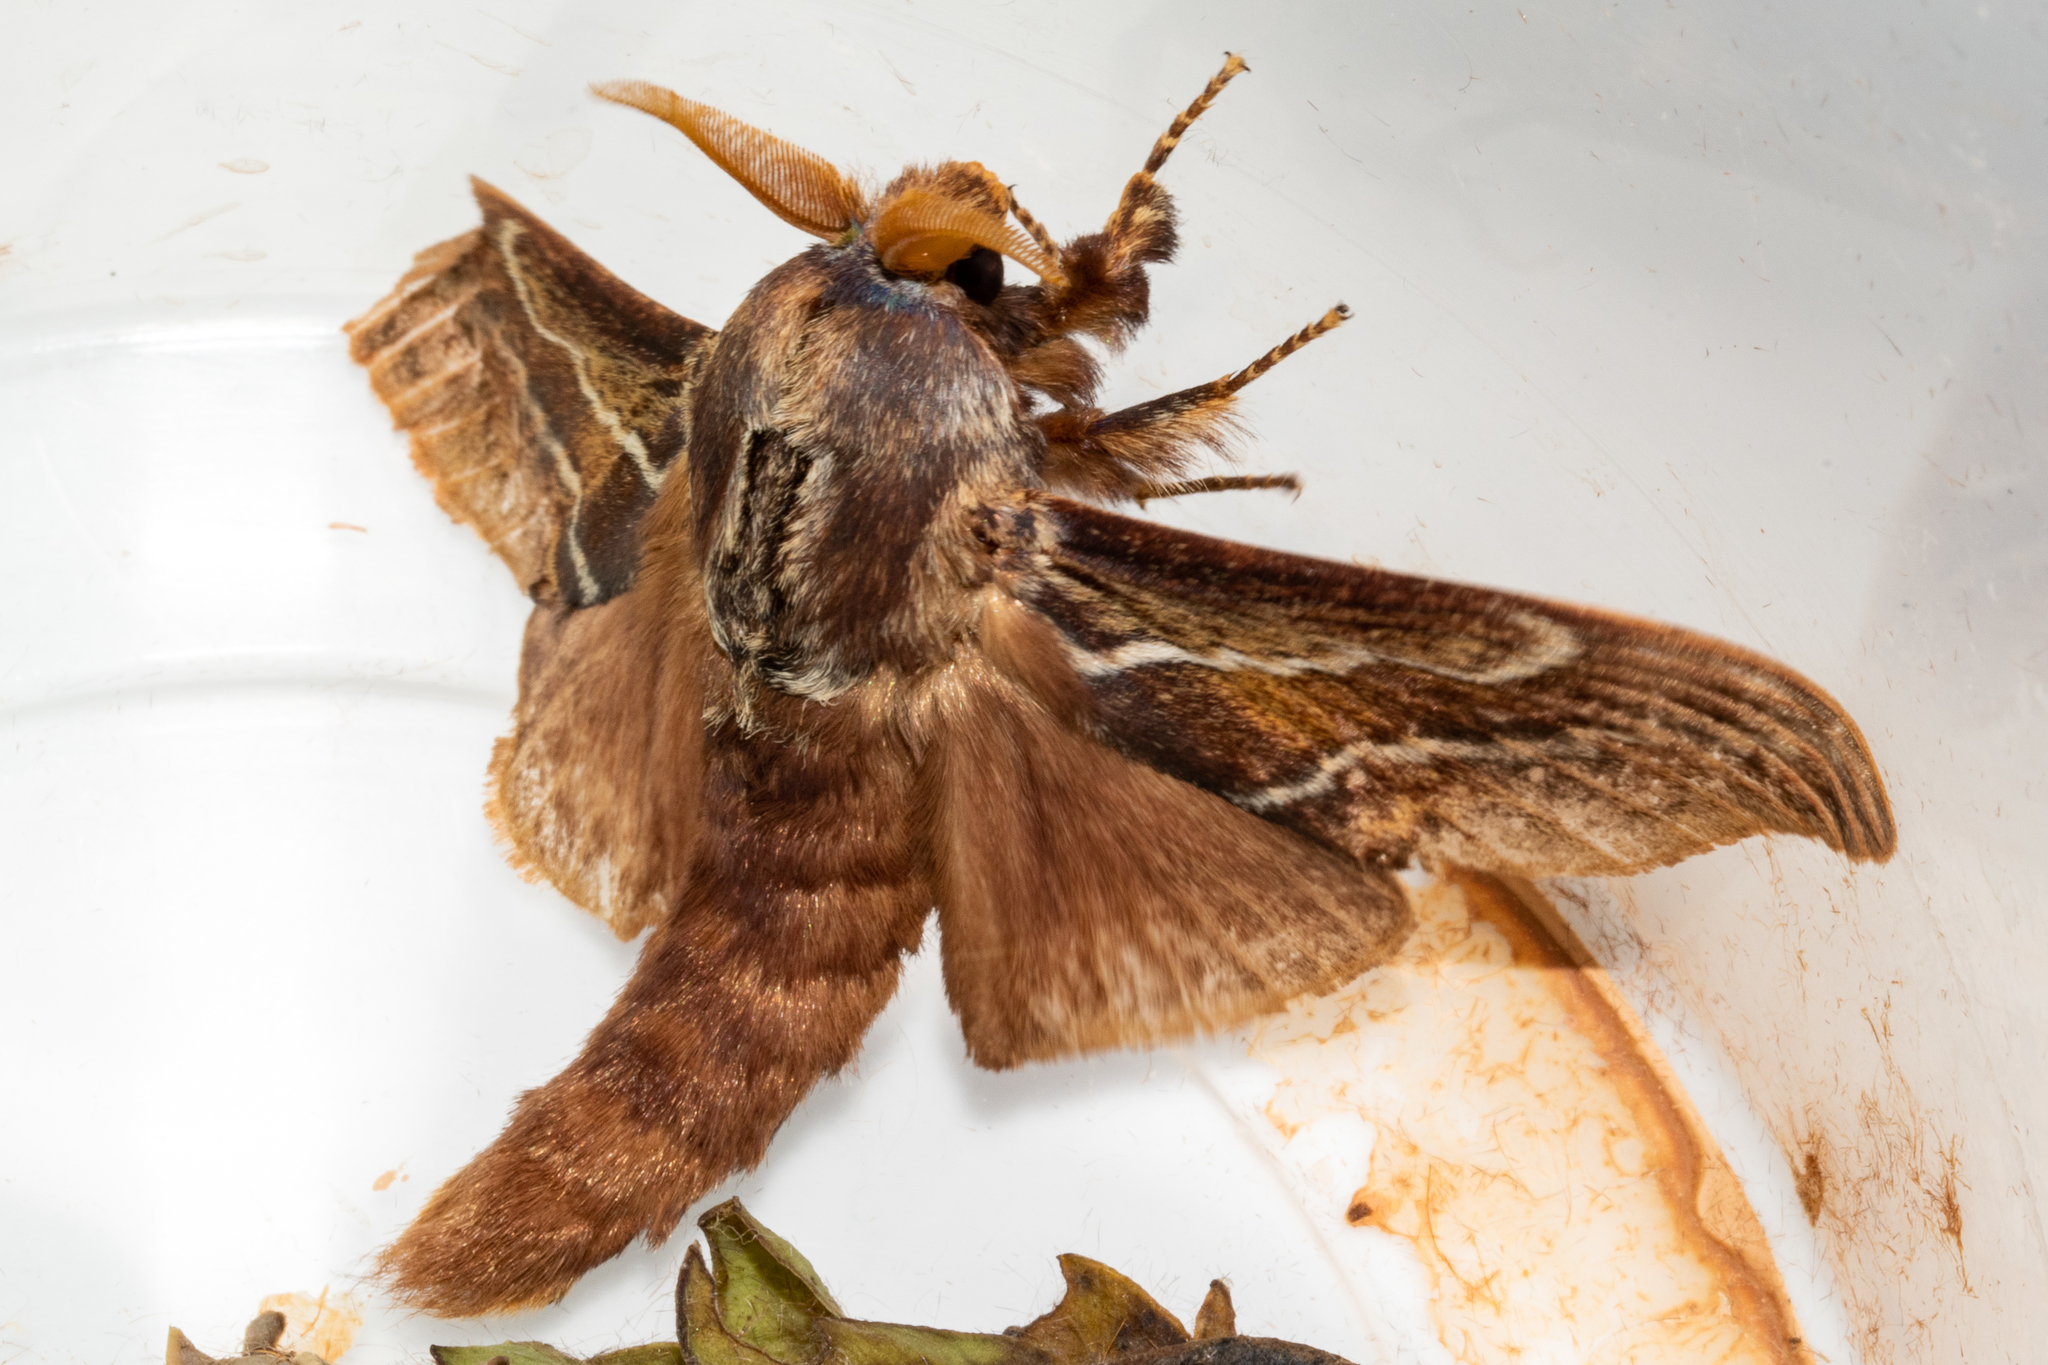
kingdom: Animalia
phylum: Arthropoda
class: Insecta
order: Lepidoptera
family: Lasiocampidae
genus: Eutricha
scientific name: Eutricha bifascia
